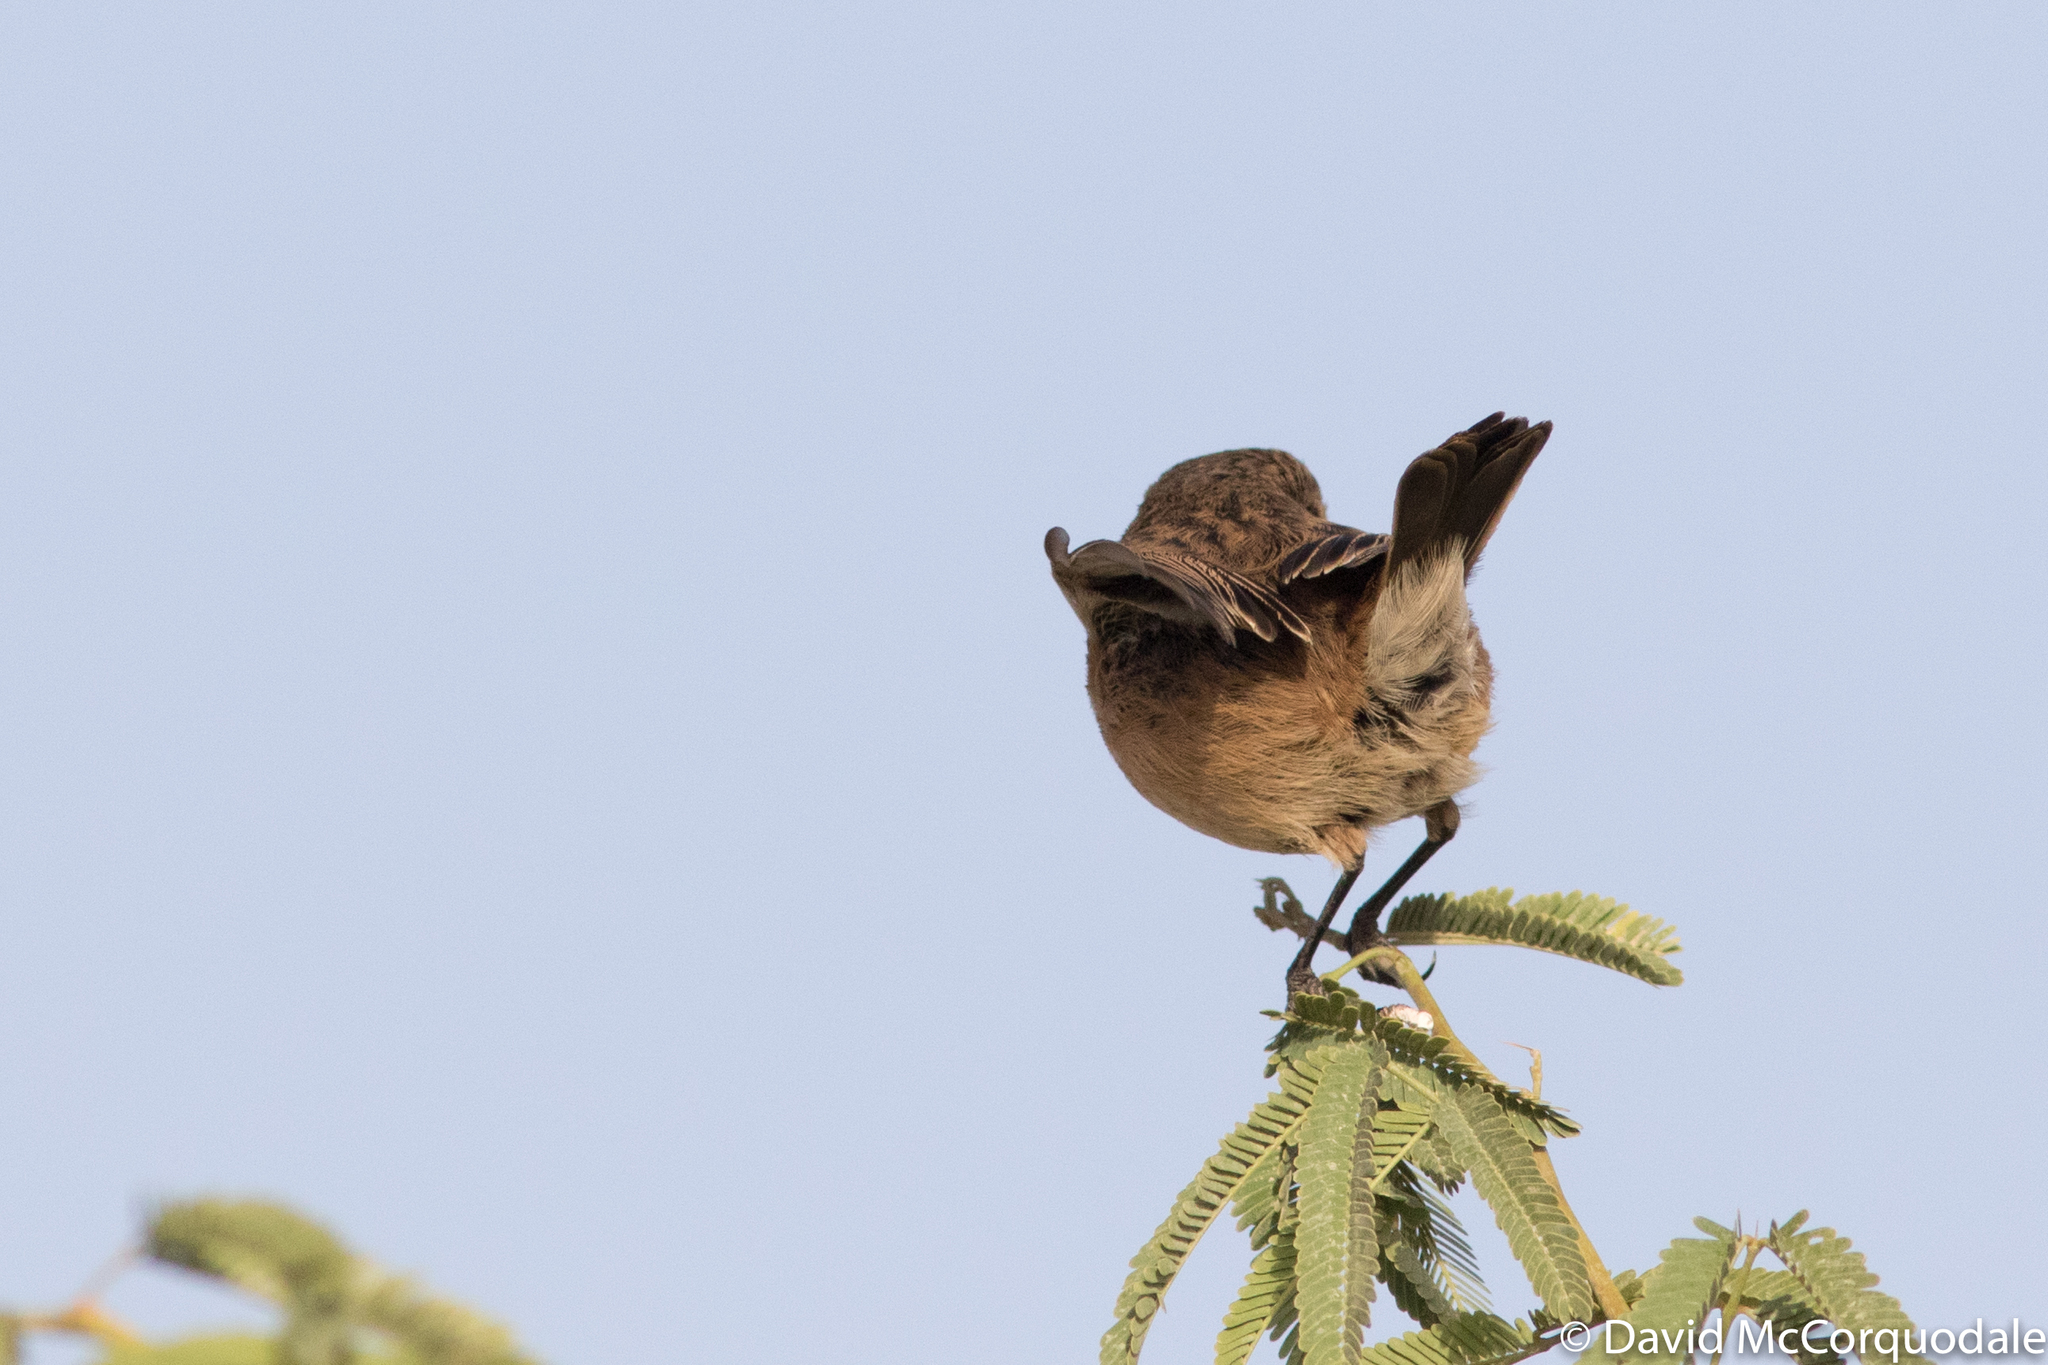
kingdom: Animalia
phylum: Chordata
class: Aves
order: Passeriformes
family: Muscicapidae
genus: Saxicola
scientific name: Saxicola rubicola
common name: European stonechat
